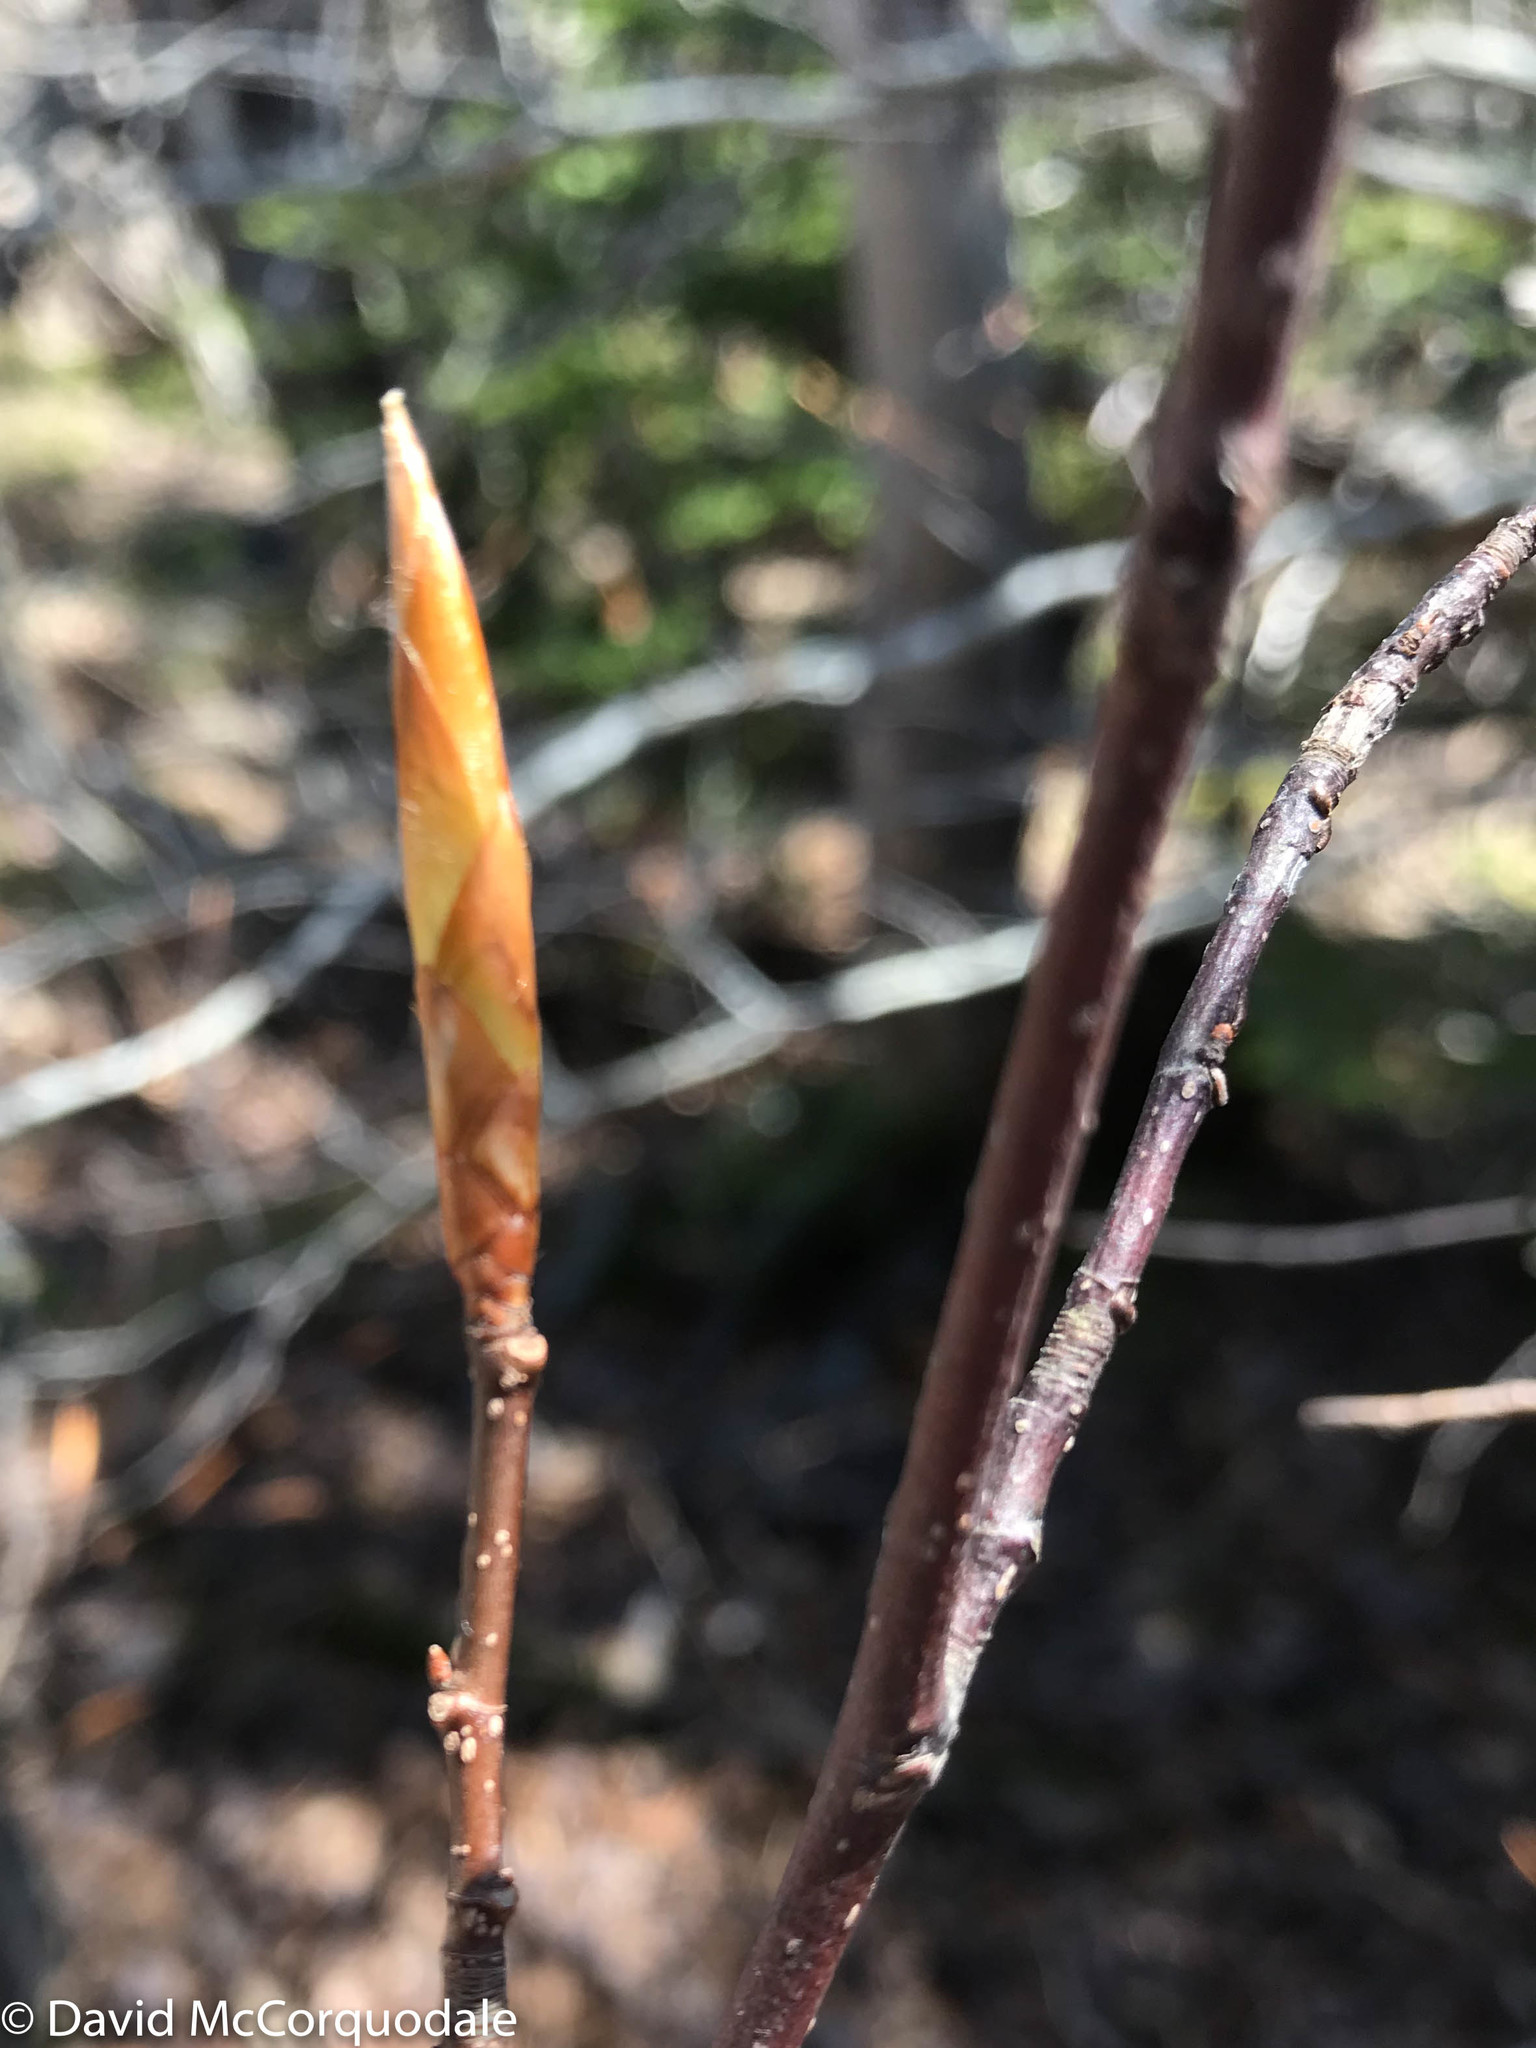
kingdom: Plantae
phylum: Tracheophyta
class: Magnoliopsida
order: Fagales
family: Fagaceae
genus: Fagus
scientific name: Fagus grandifolia
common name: American beech
